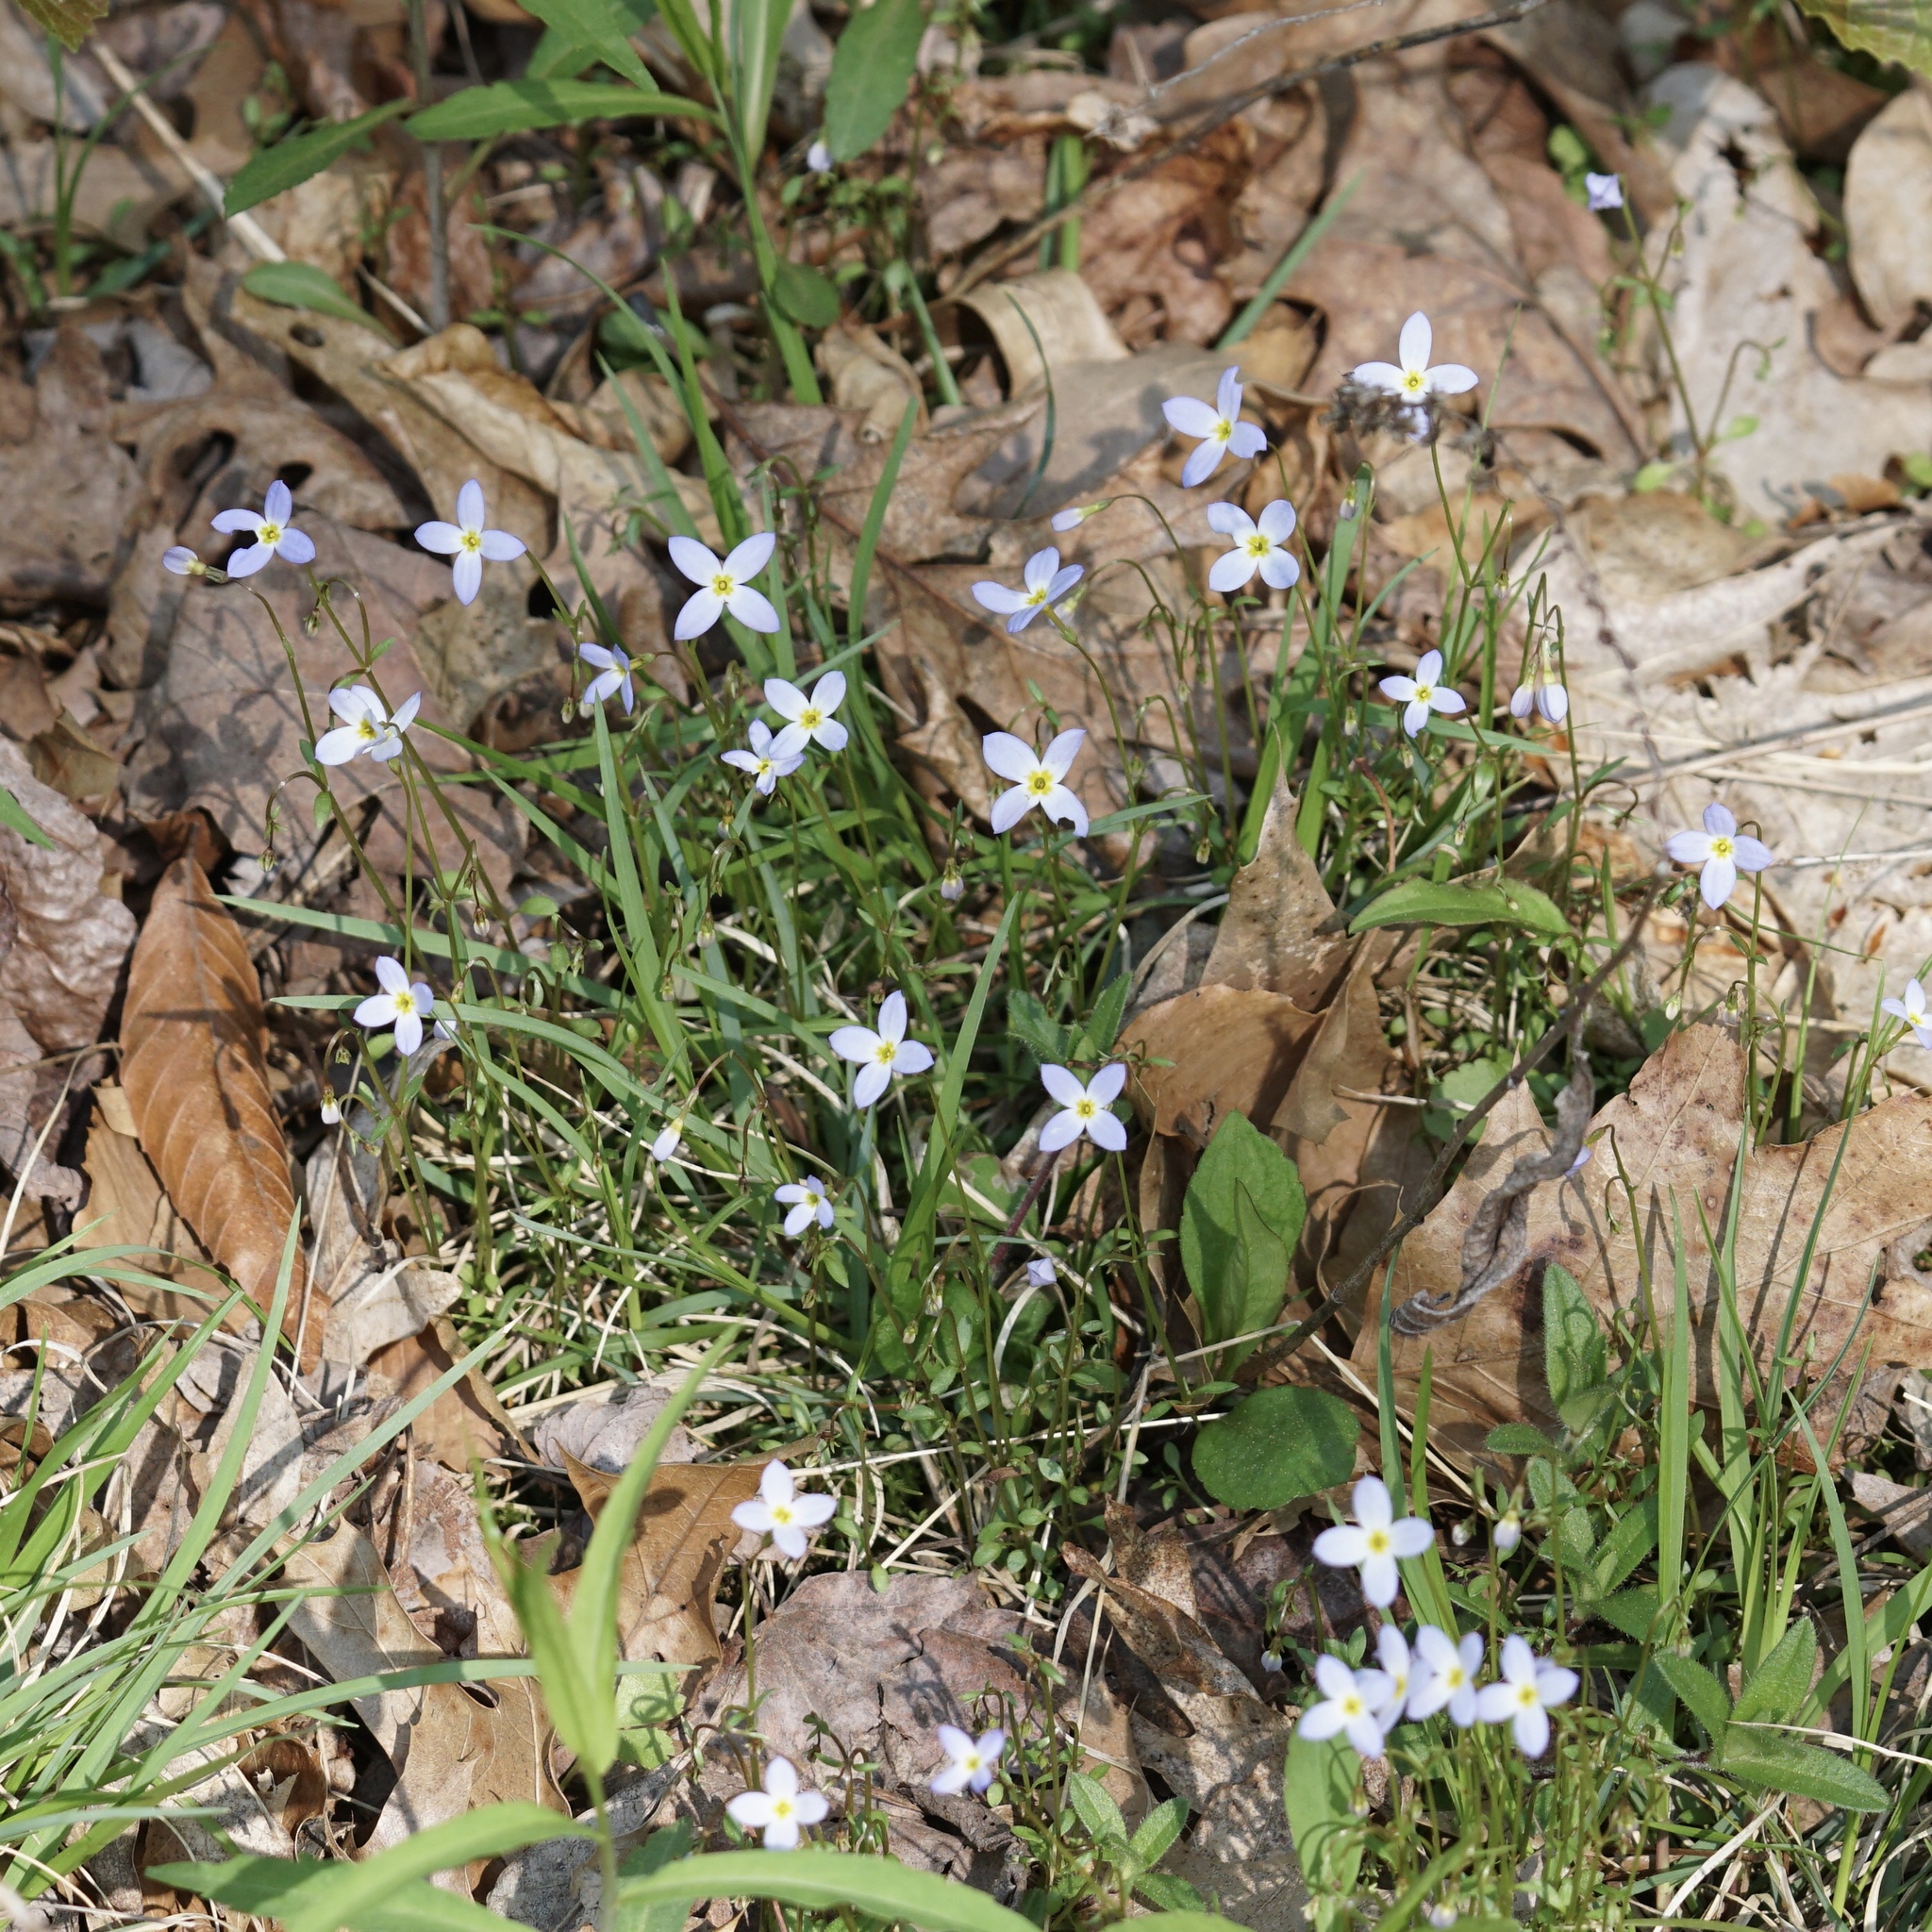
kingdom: Plantae
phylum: Tracheophyta
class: Magnoliopsida
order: Gentianales
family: Rubiaceae
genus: Houstonia
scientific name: Houstonia caerulea
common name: Bluets
